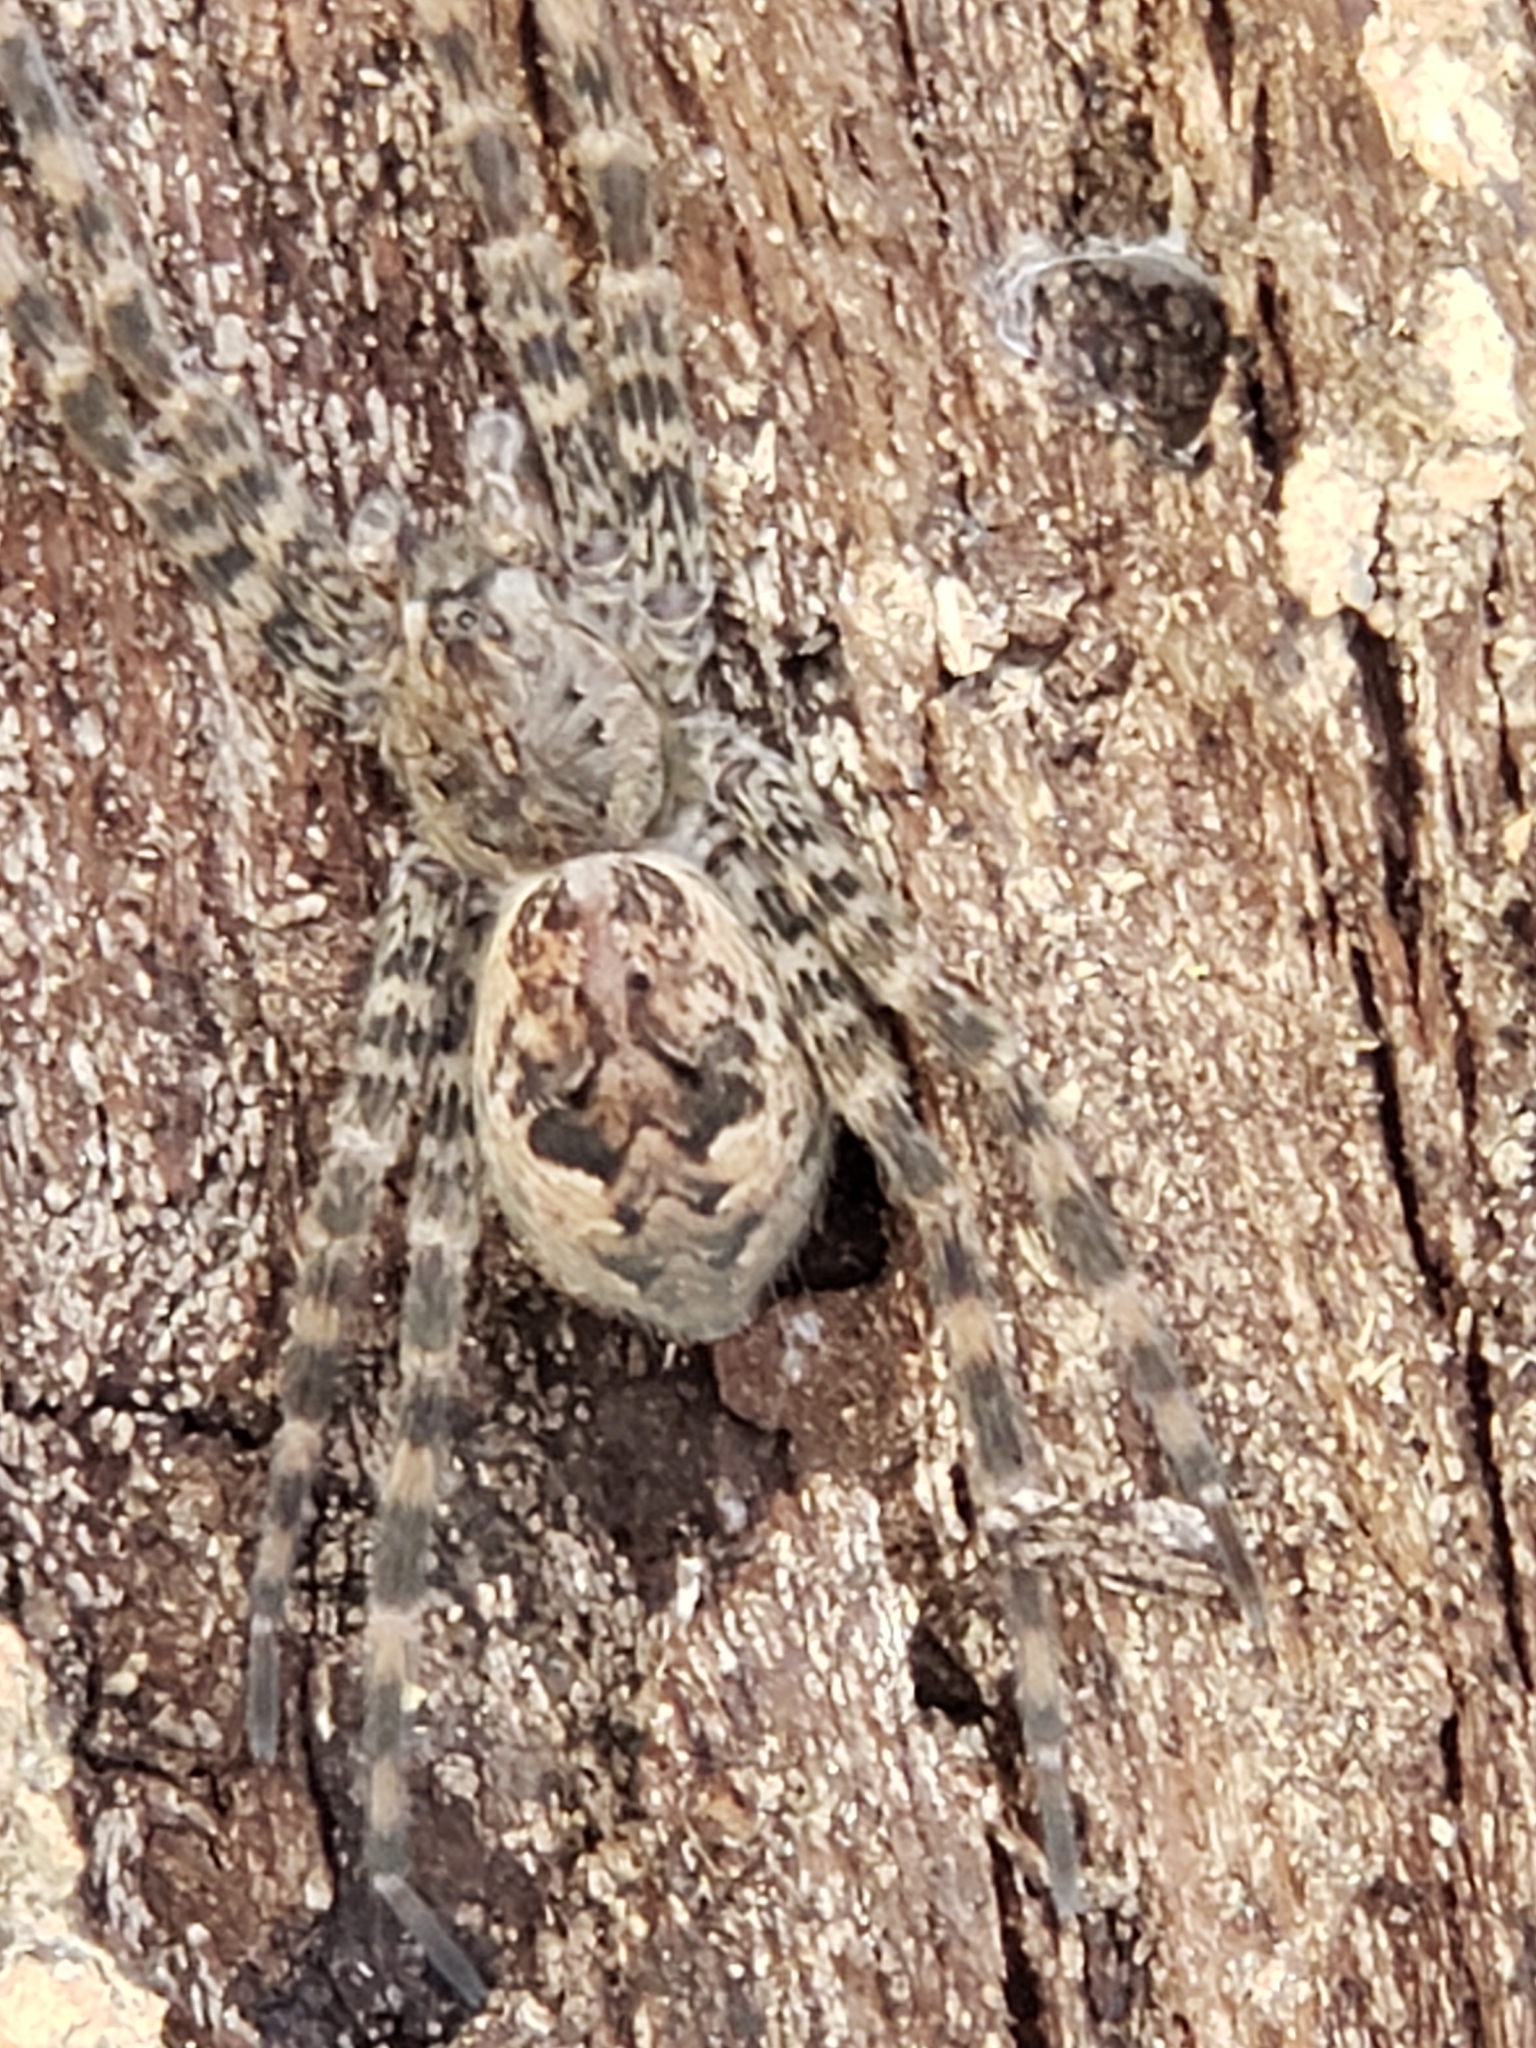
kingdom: Animalia
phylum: Arthropoda
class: Arachnida
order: Araneae
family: Pisauridae
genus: Dolomedes
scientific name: Dolomedes tenebrosus
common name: Dark fishing spider
